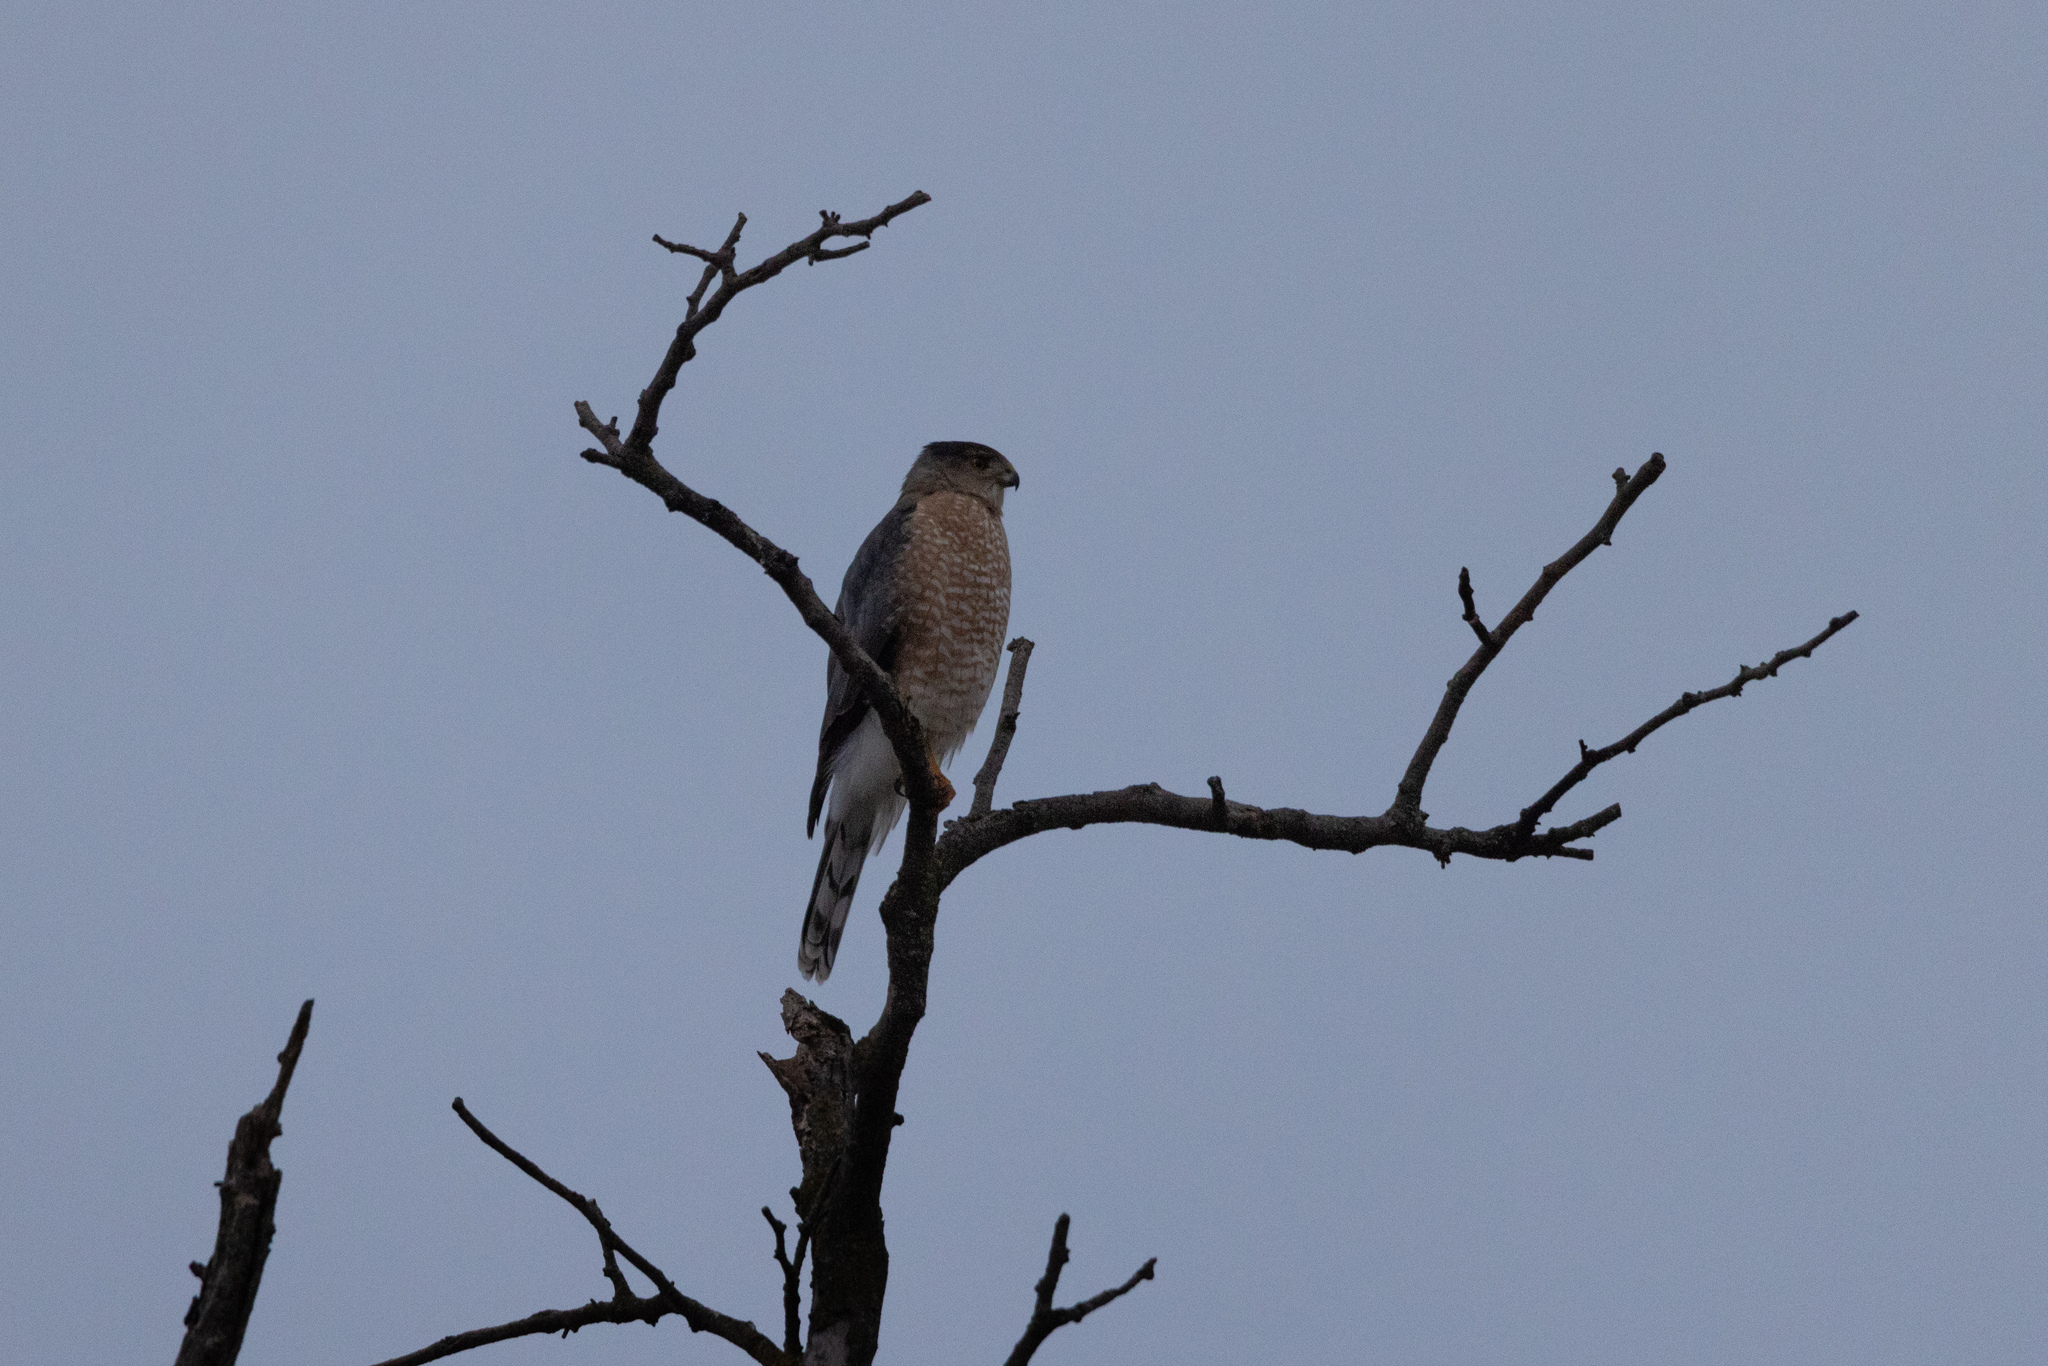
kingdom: Animalia
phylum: Chordata
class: Aves
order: Accipitriformes
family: Accipitridae
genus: Accipiter
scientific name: Accipiter cooperii
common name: Cooper's hawk
